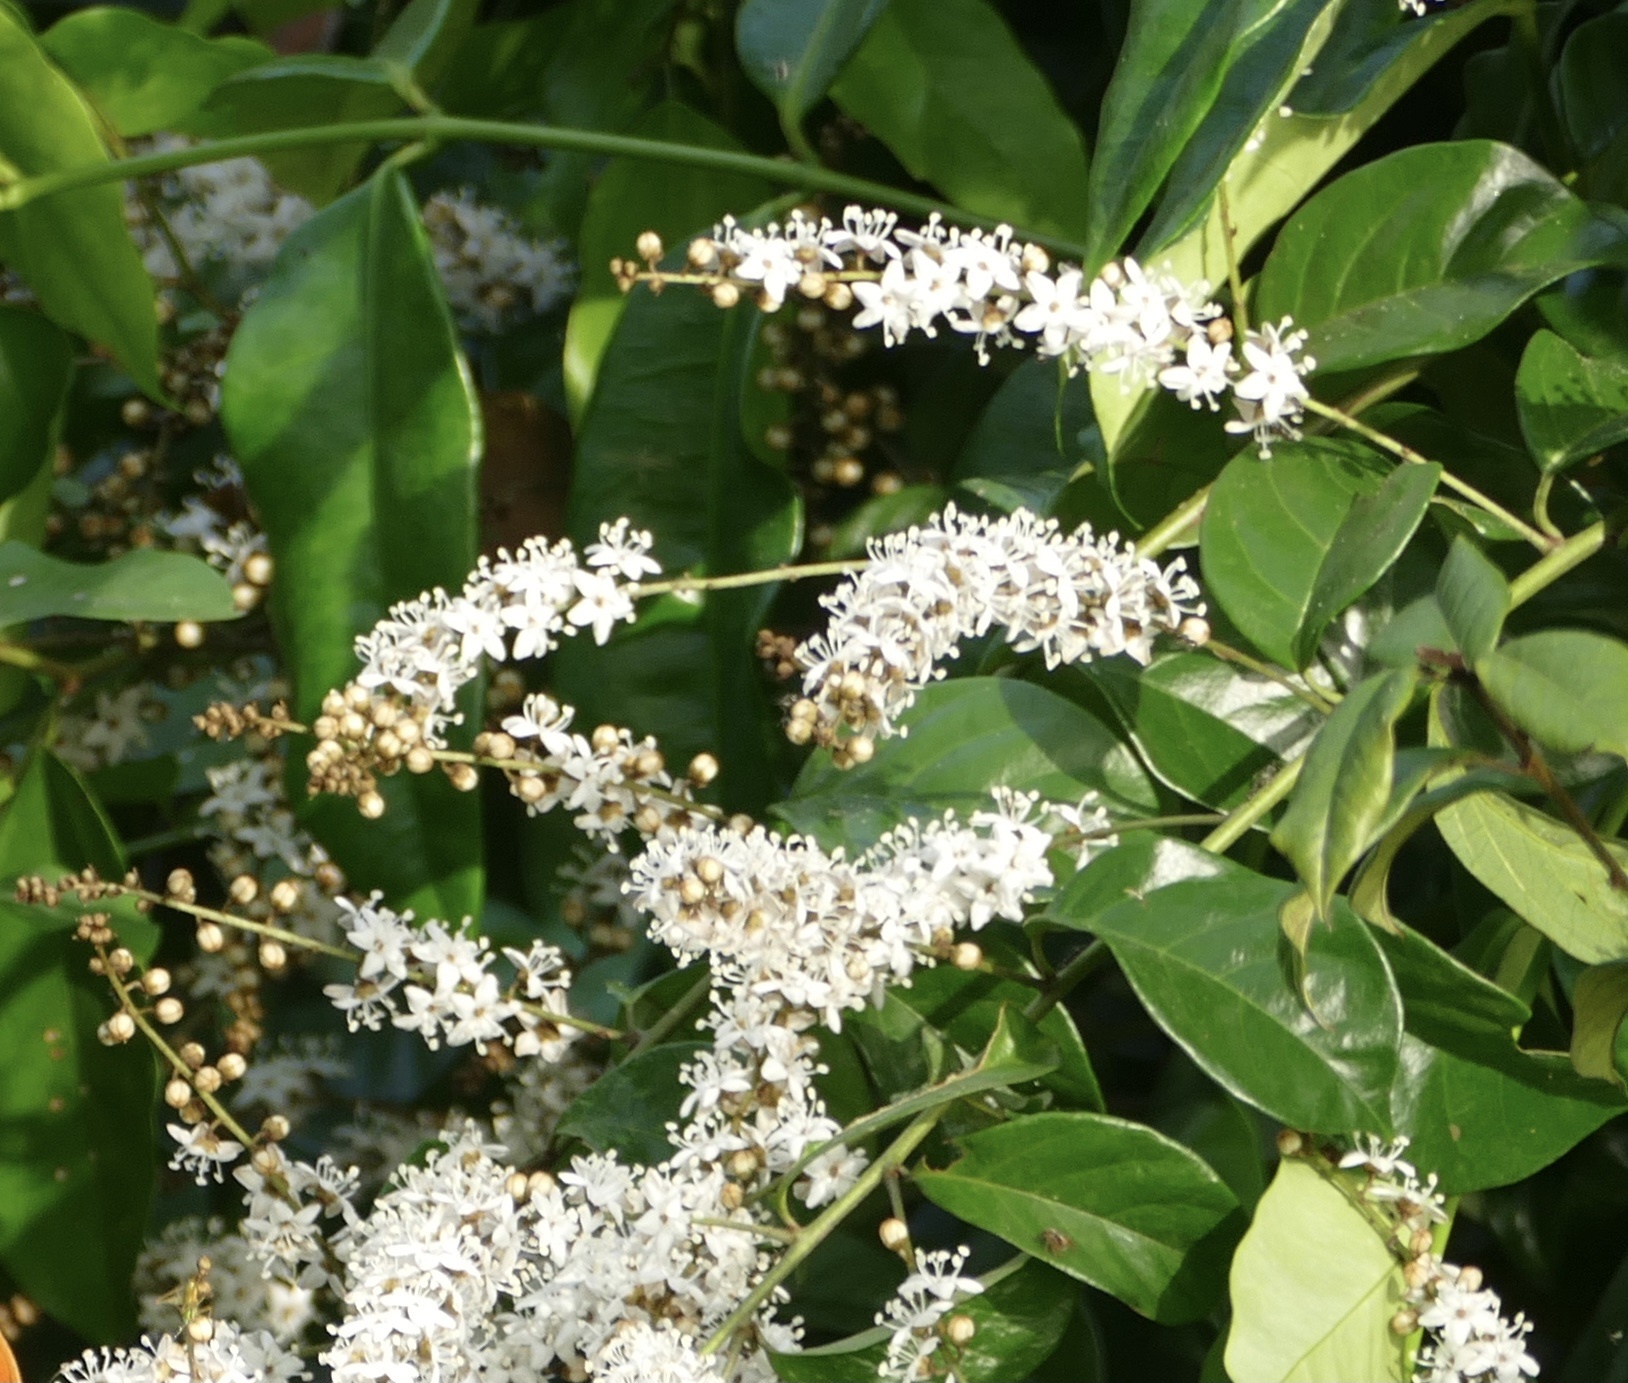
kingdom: Plantae
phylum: Tracheophyta
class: Magnoliopsida
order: Solanales
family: Convolvulaceae
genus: Neuropeltis
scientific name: Neuropeltis acuminata
